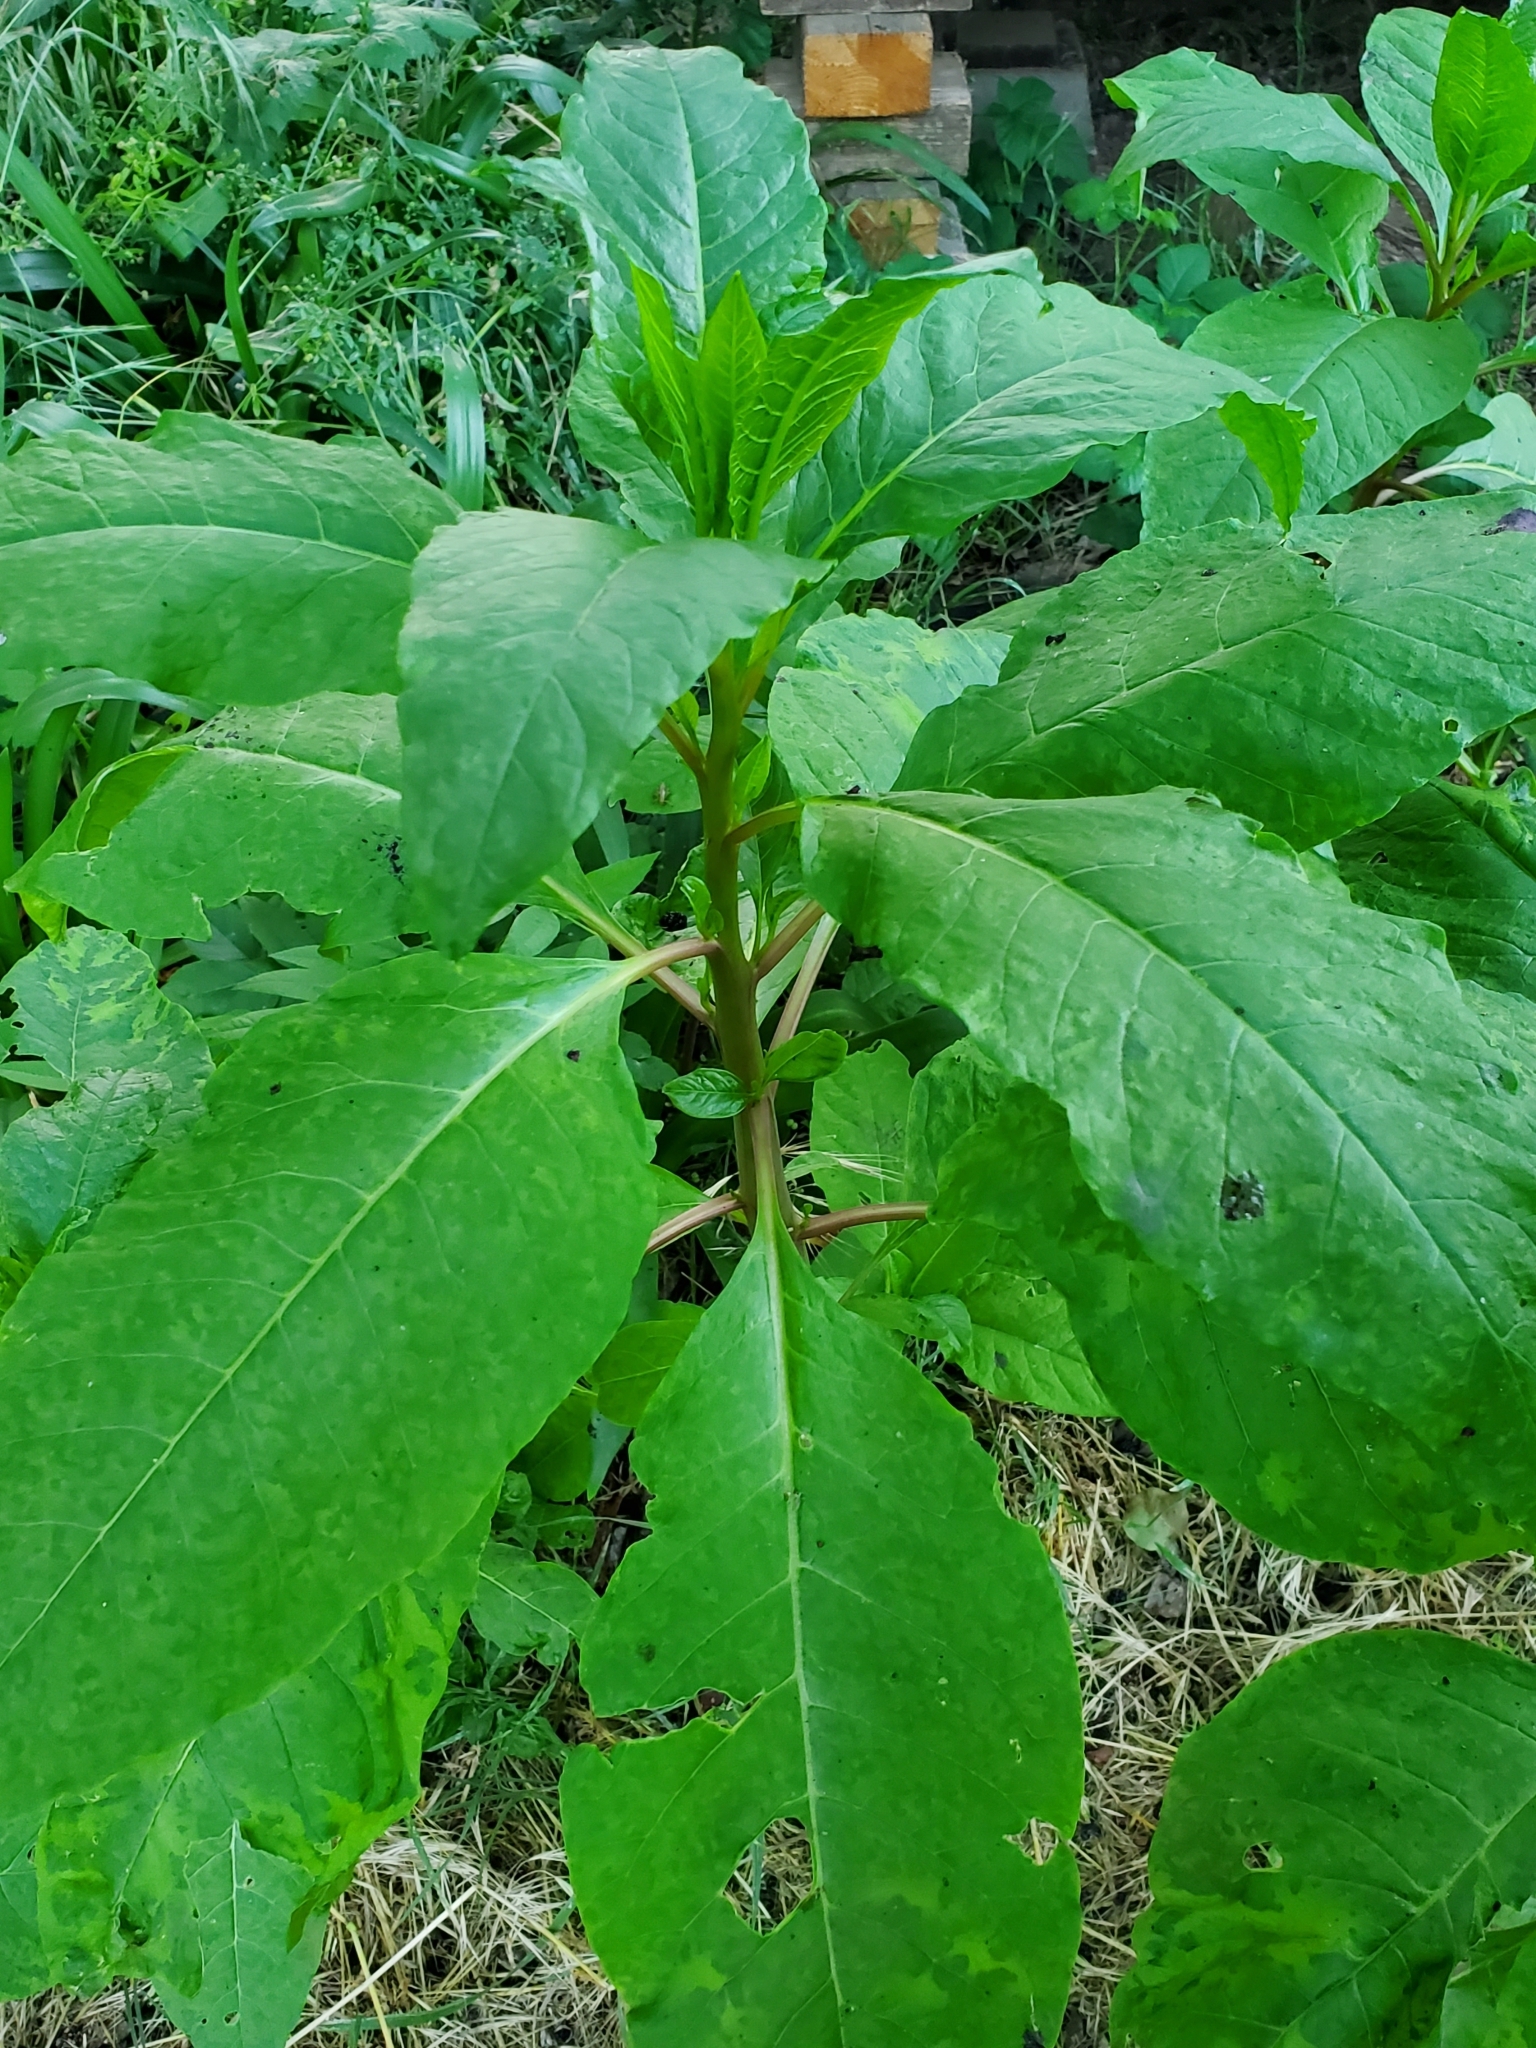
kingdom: Plantae
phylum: Tracheophyta
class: Magnoliopsida
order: Caryophyllales
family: Phytolaccaceae
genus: Phytolacca
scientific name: Phytolacca americana
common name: American pokeweed
